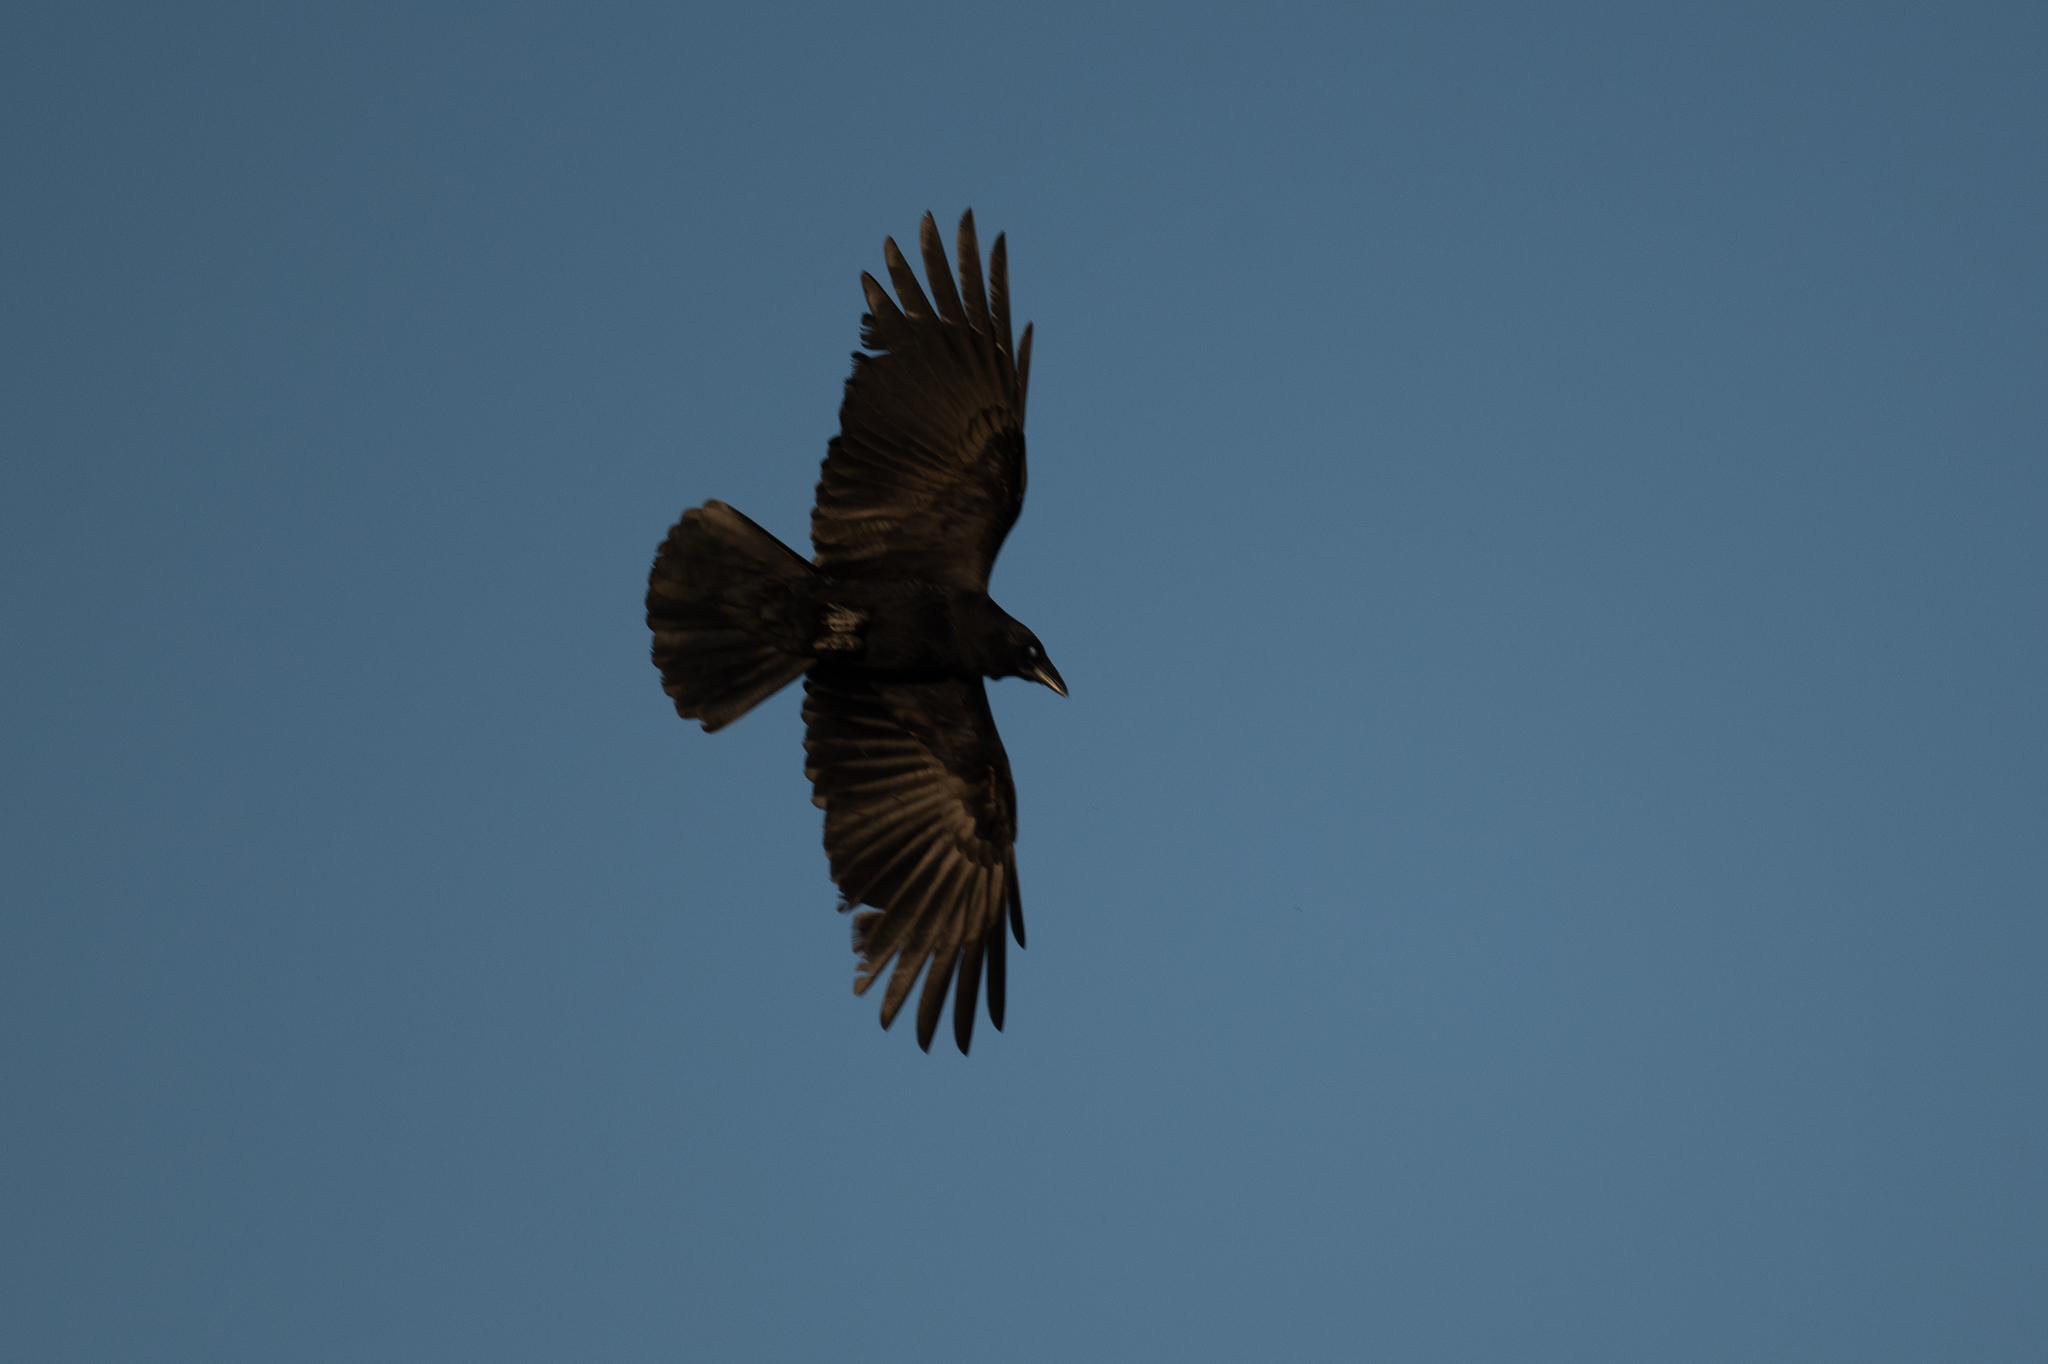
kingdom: Animalia
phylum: Chordata
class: Aves
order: Passeriformes
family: Corvidae
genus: Corvus
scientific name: Corvus brachyrhynchos
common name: American crow
